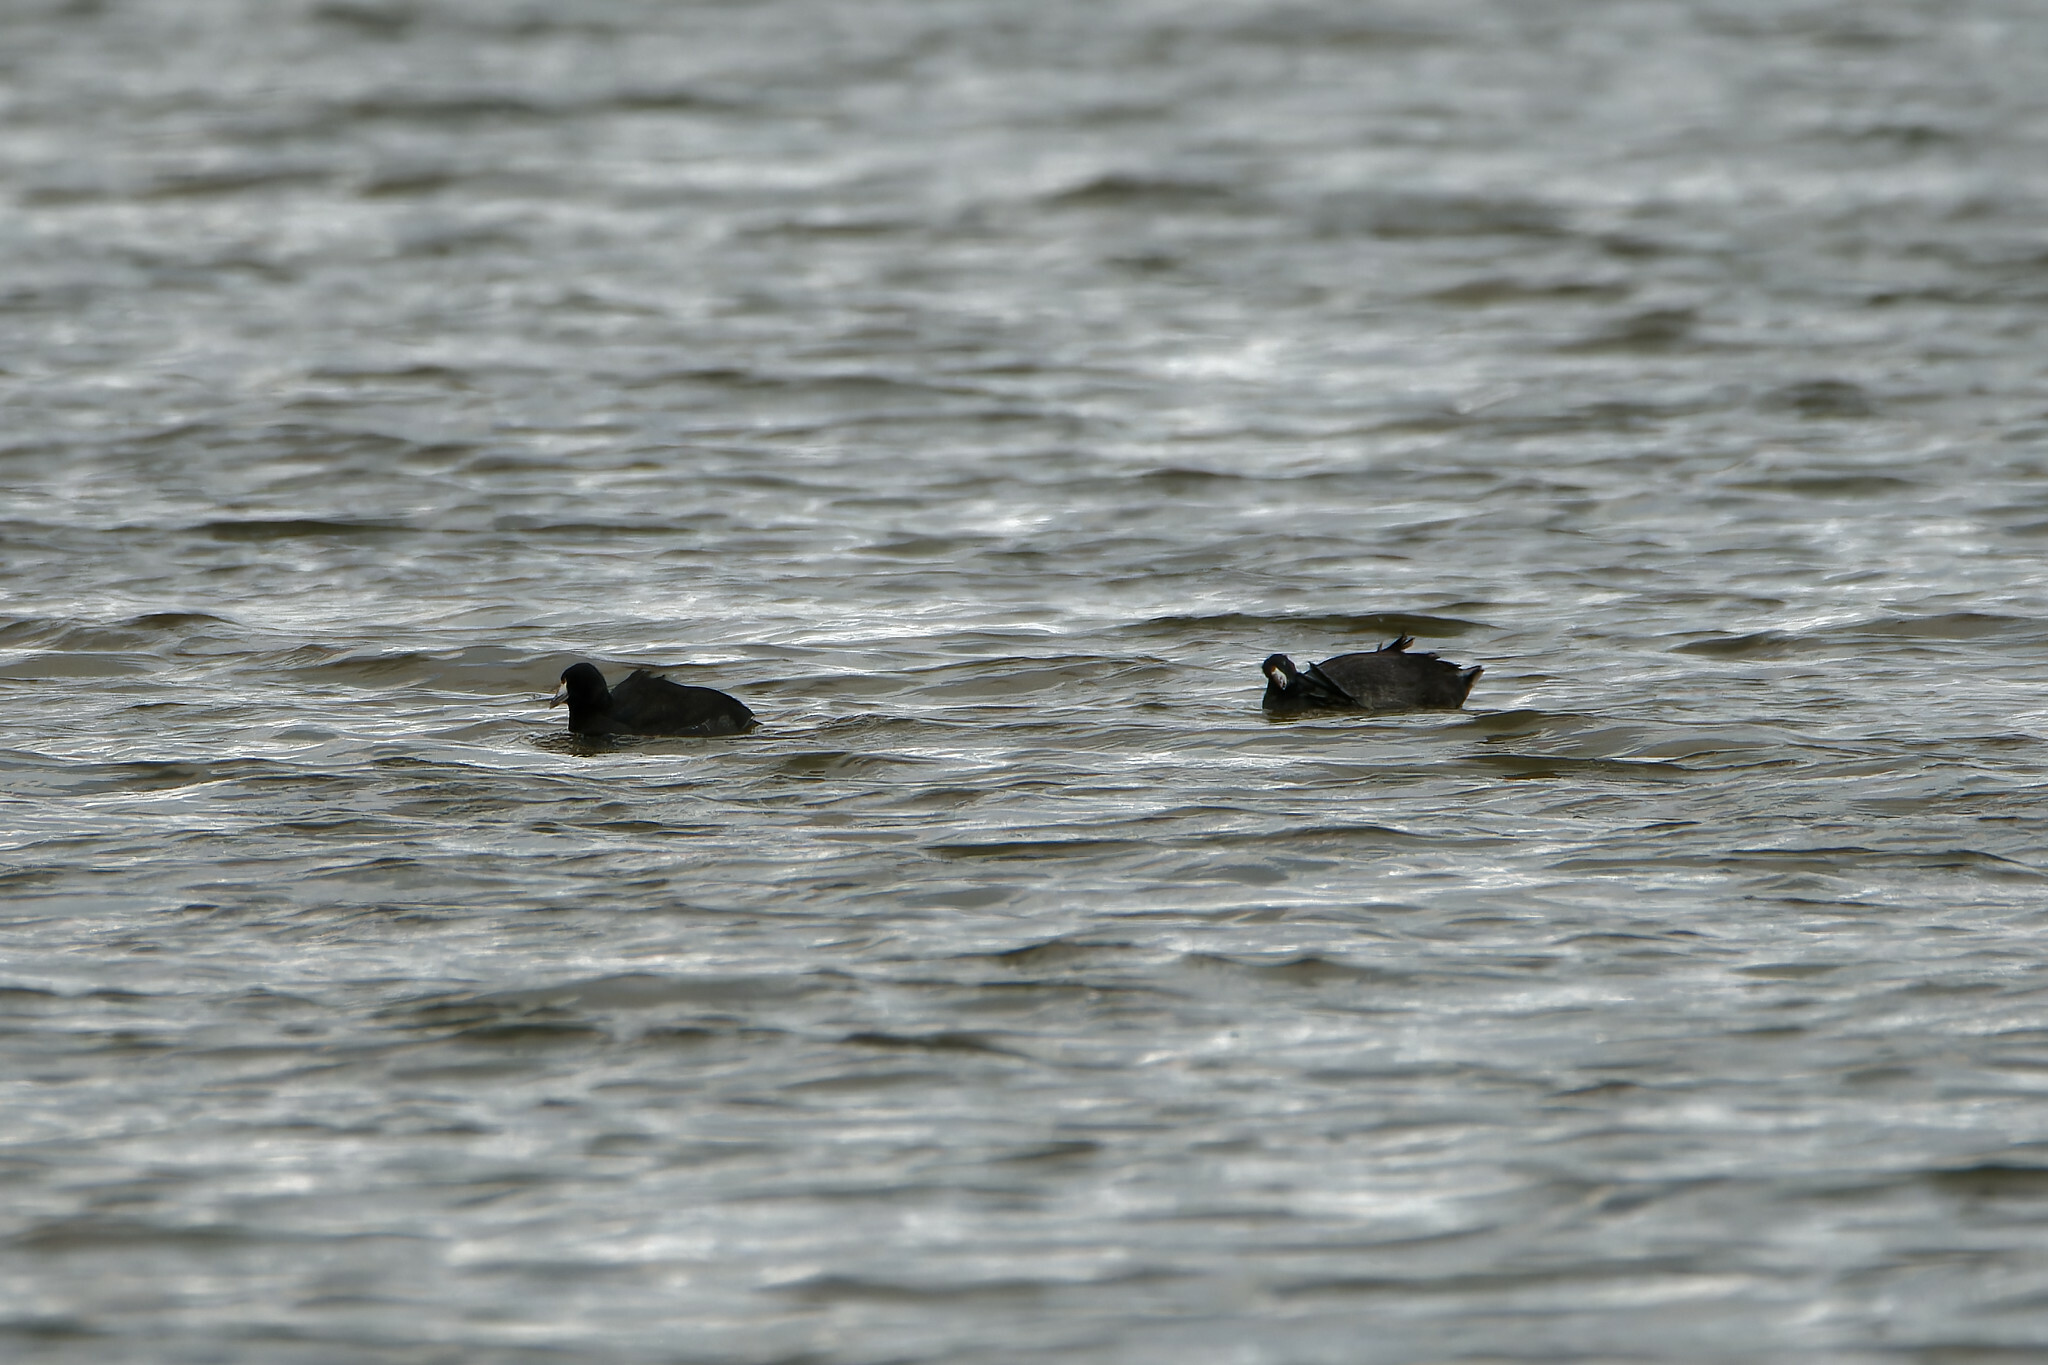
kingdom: Animalia
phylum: Chordata
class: Aves
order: Gruiformes
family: Rallidae
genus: Fulica
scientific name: Fulica americana
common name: American coot
